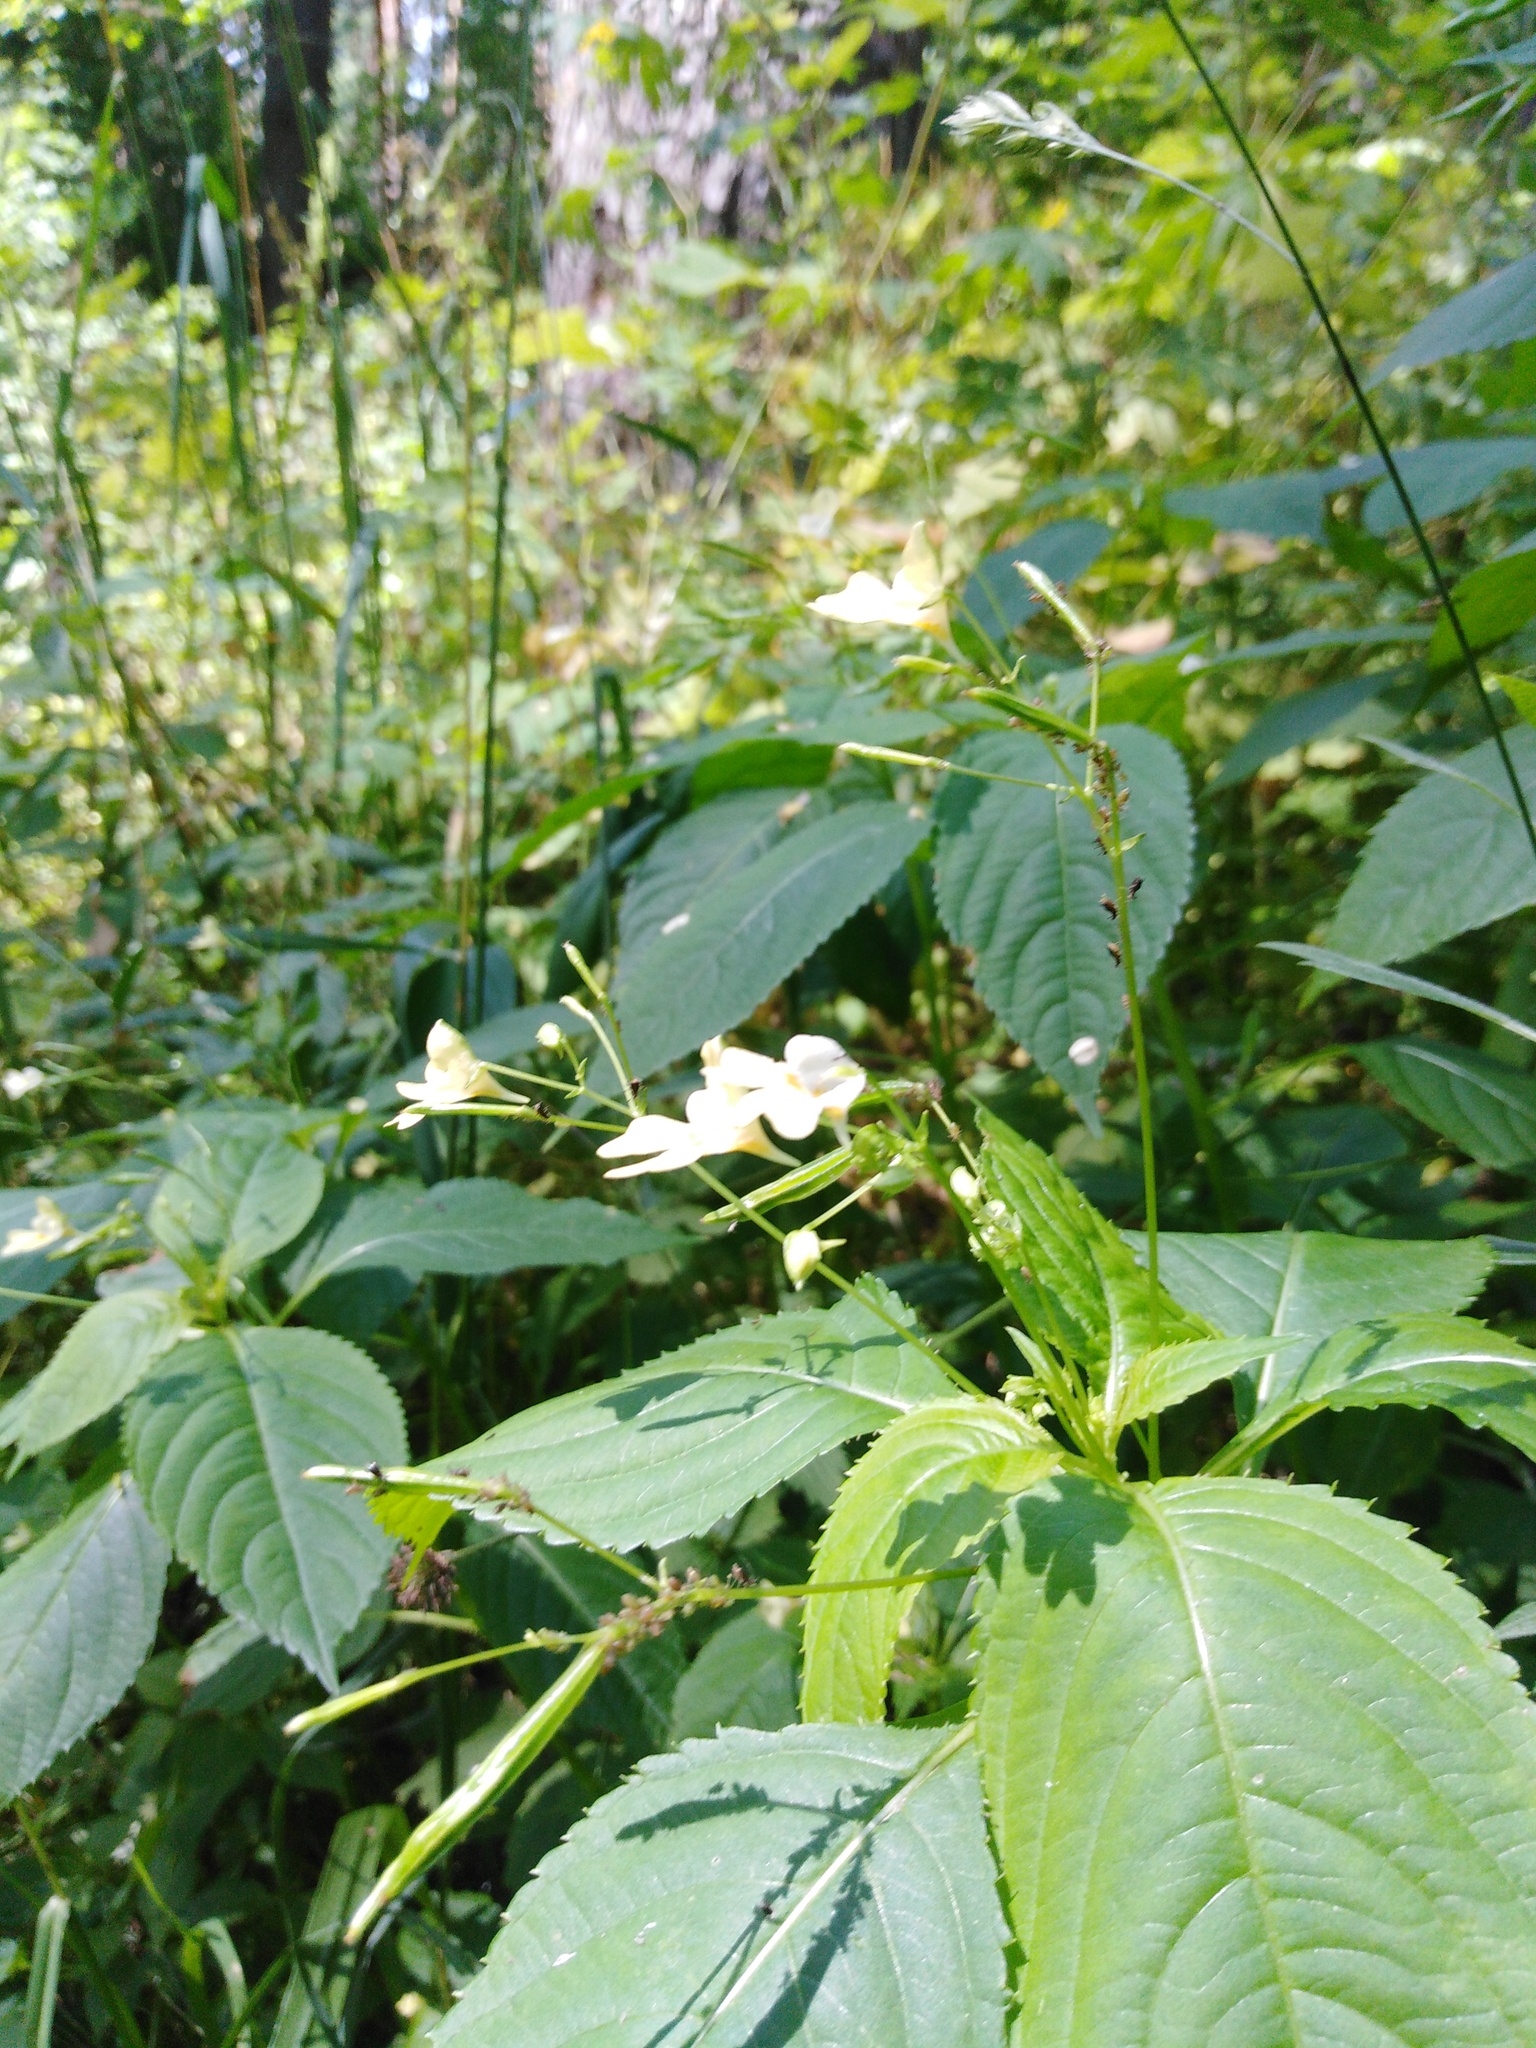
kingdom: Plantae
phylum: Tracheophyta
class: Magnoliopsida
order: Ericales
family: Balsaminaceae
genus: Impatiens
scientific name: Impatiens parviflora
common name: Small balsam
